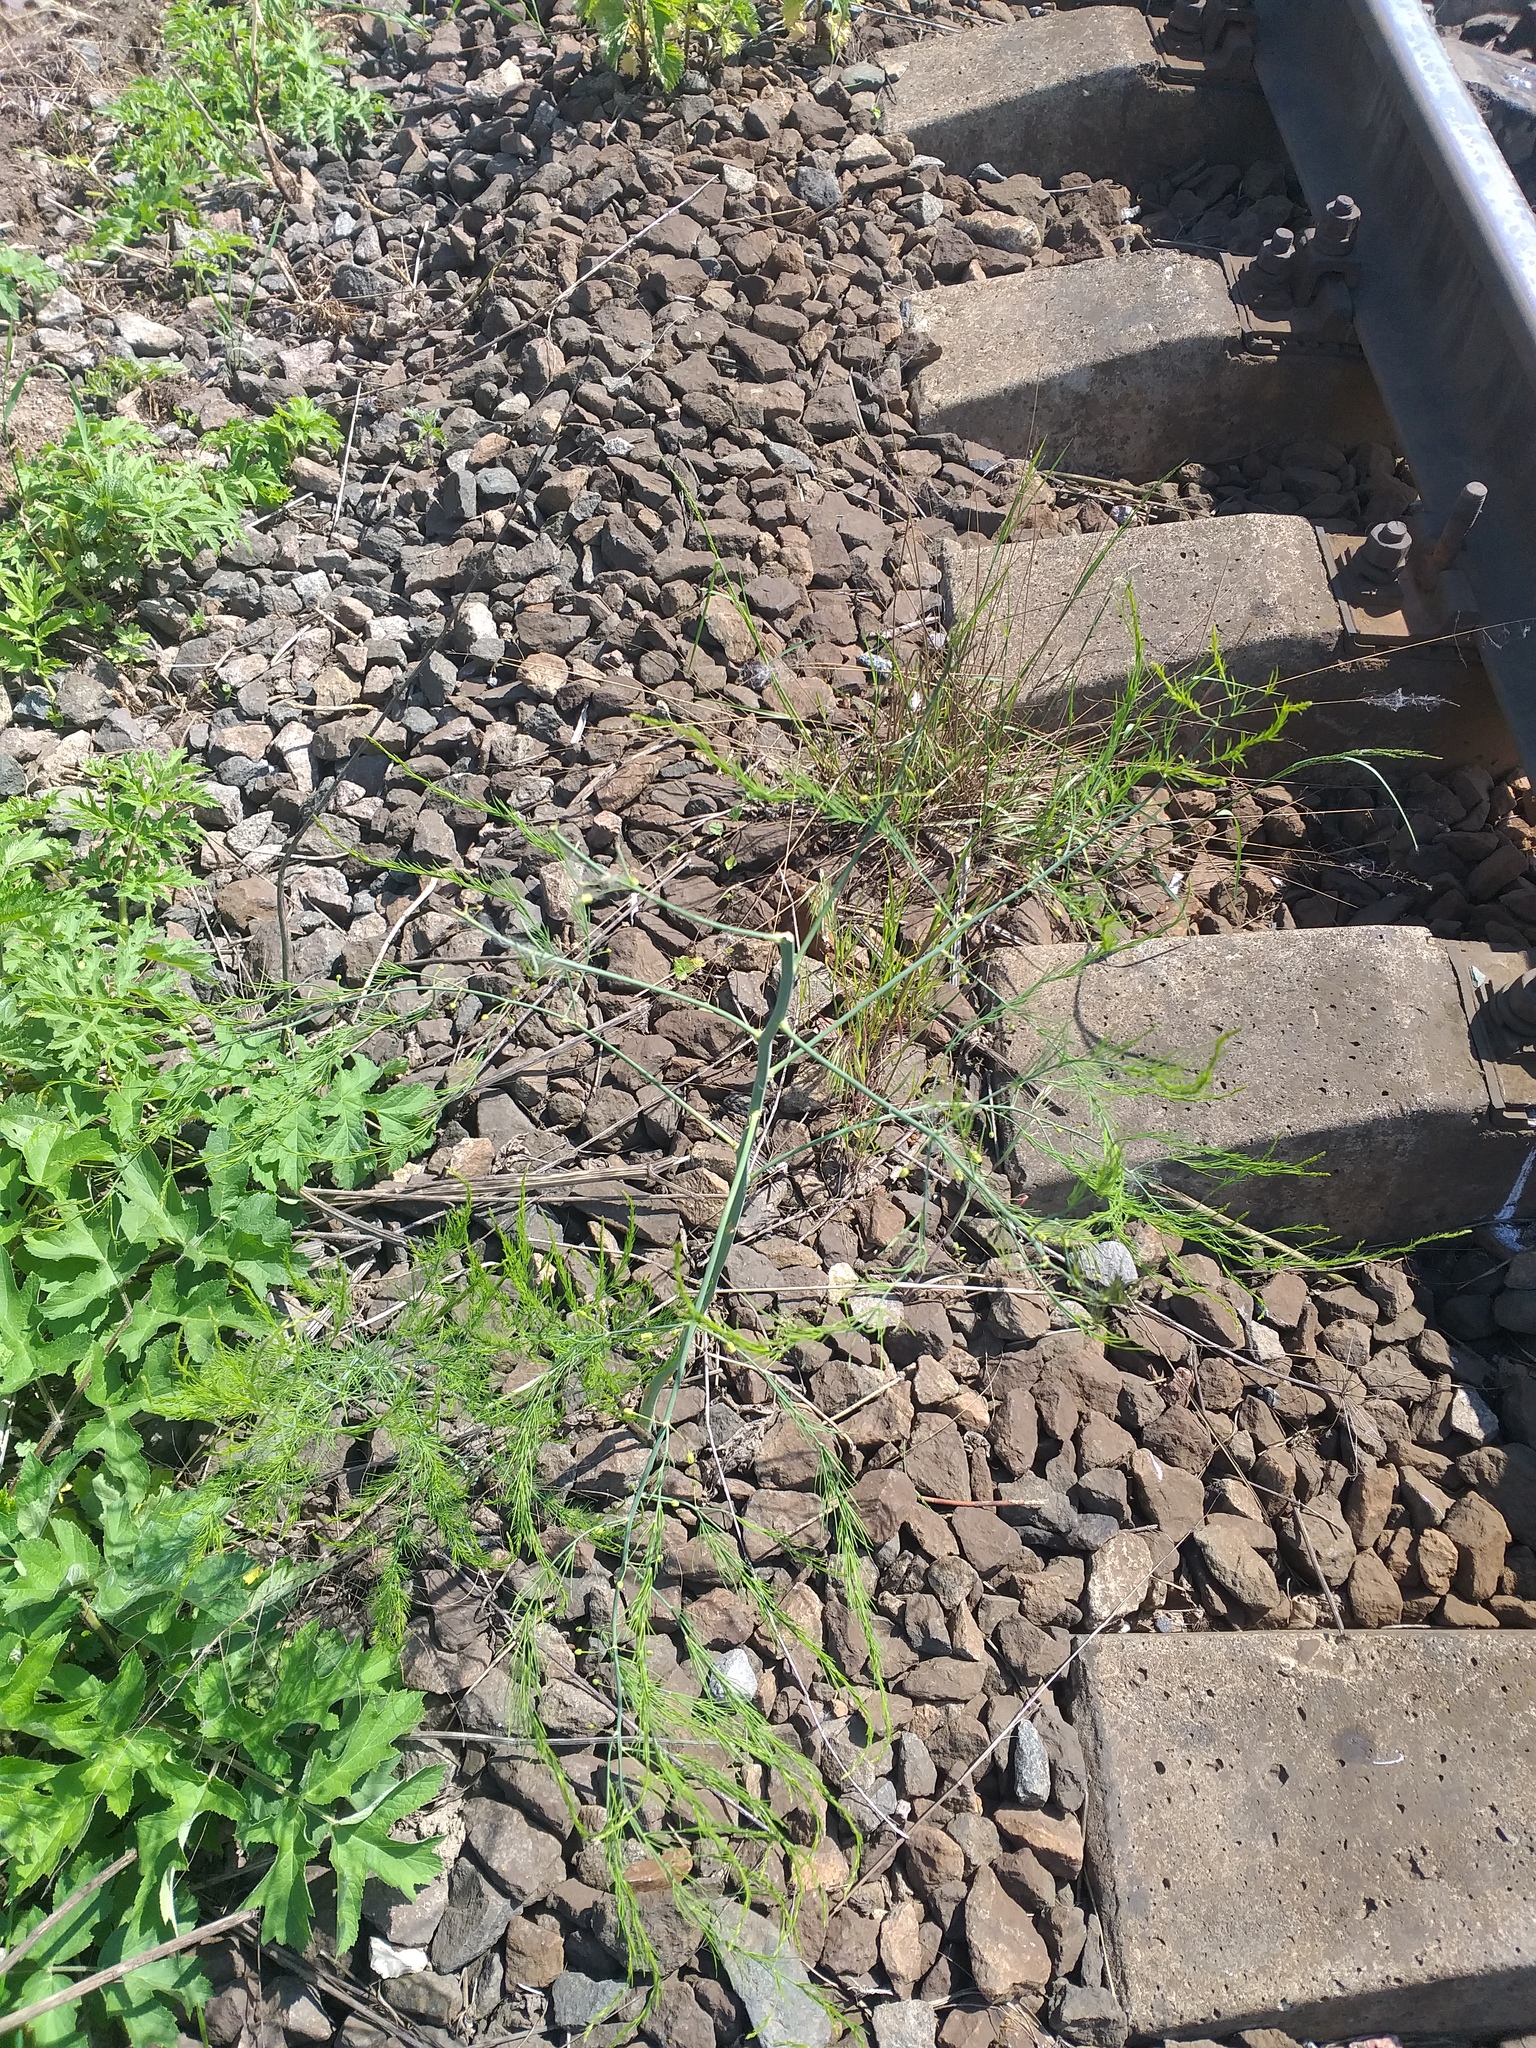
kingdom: Plantae
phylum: Tracheophyta
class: Liliopsida
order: Asparagales
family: Asparagaceae
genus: Asparagus
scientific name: Asparagus officinalis
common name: Garden asparagus
